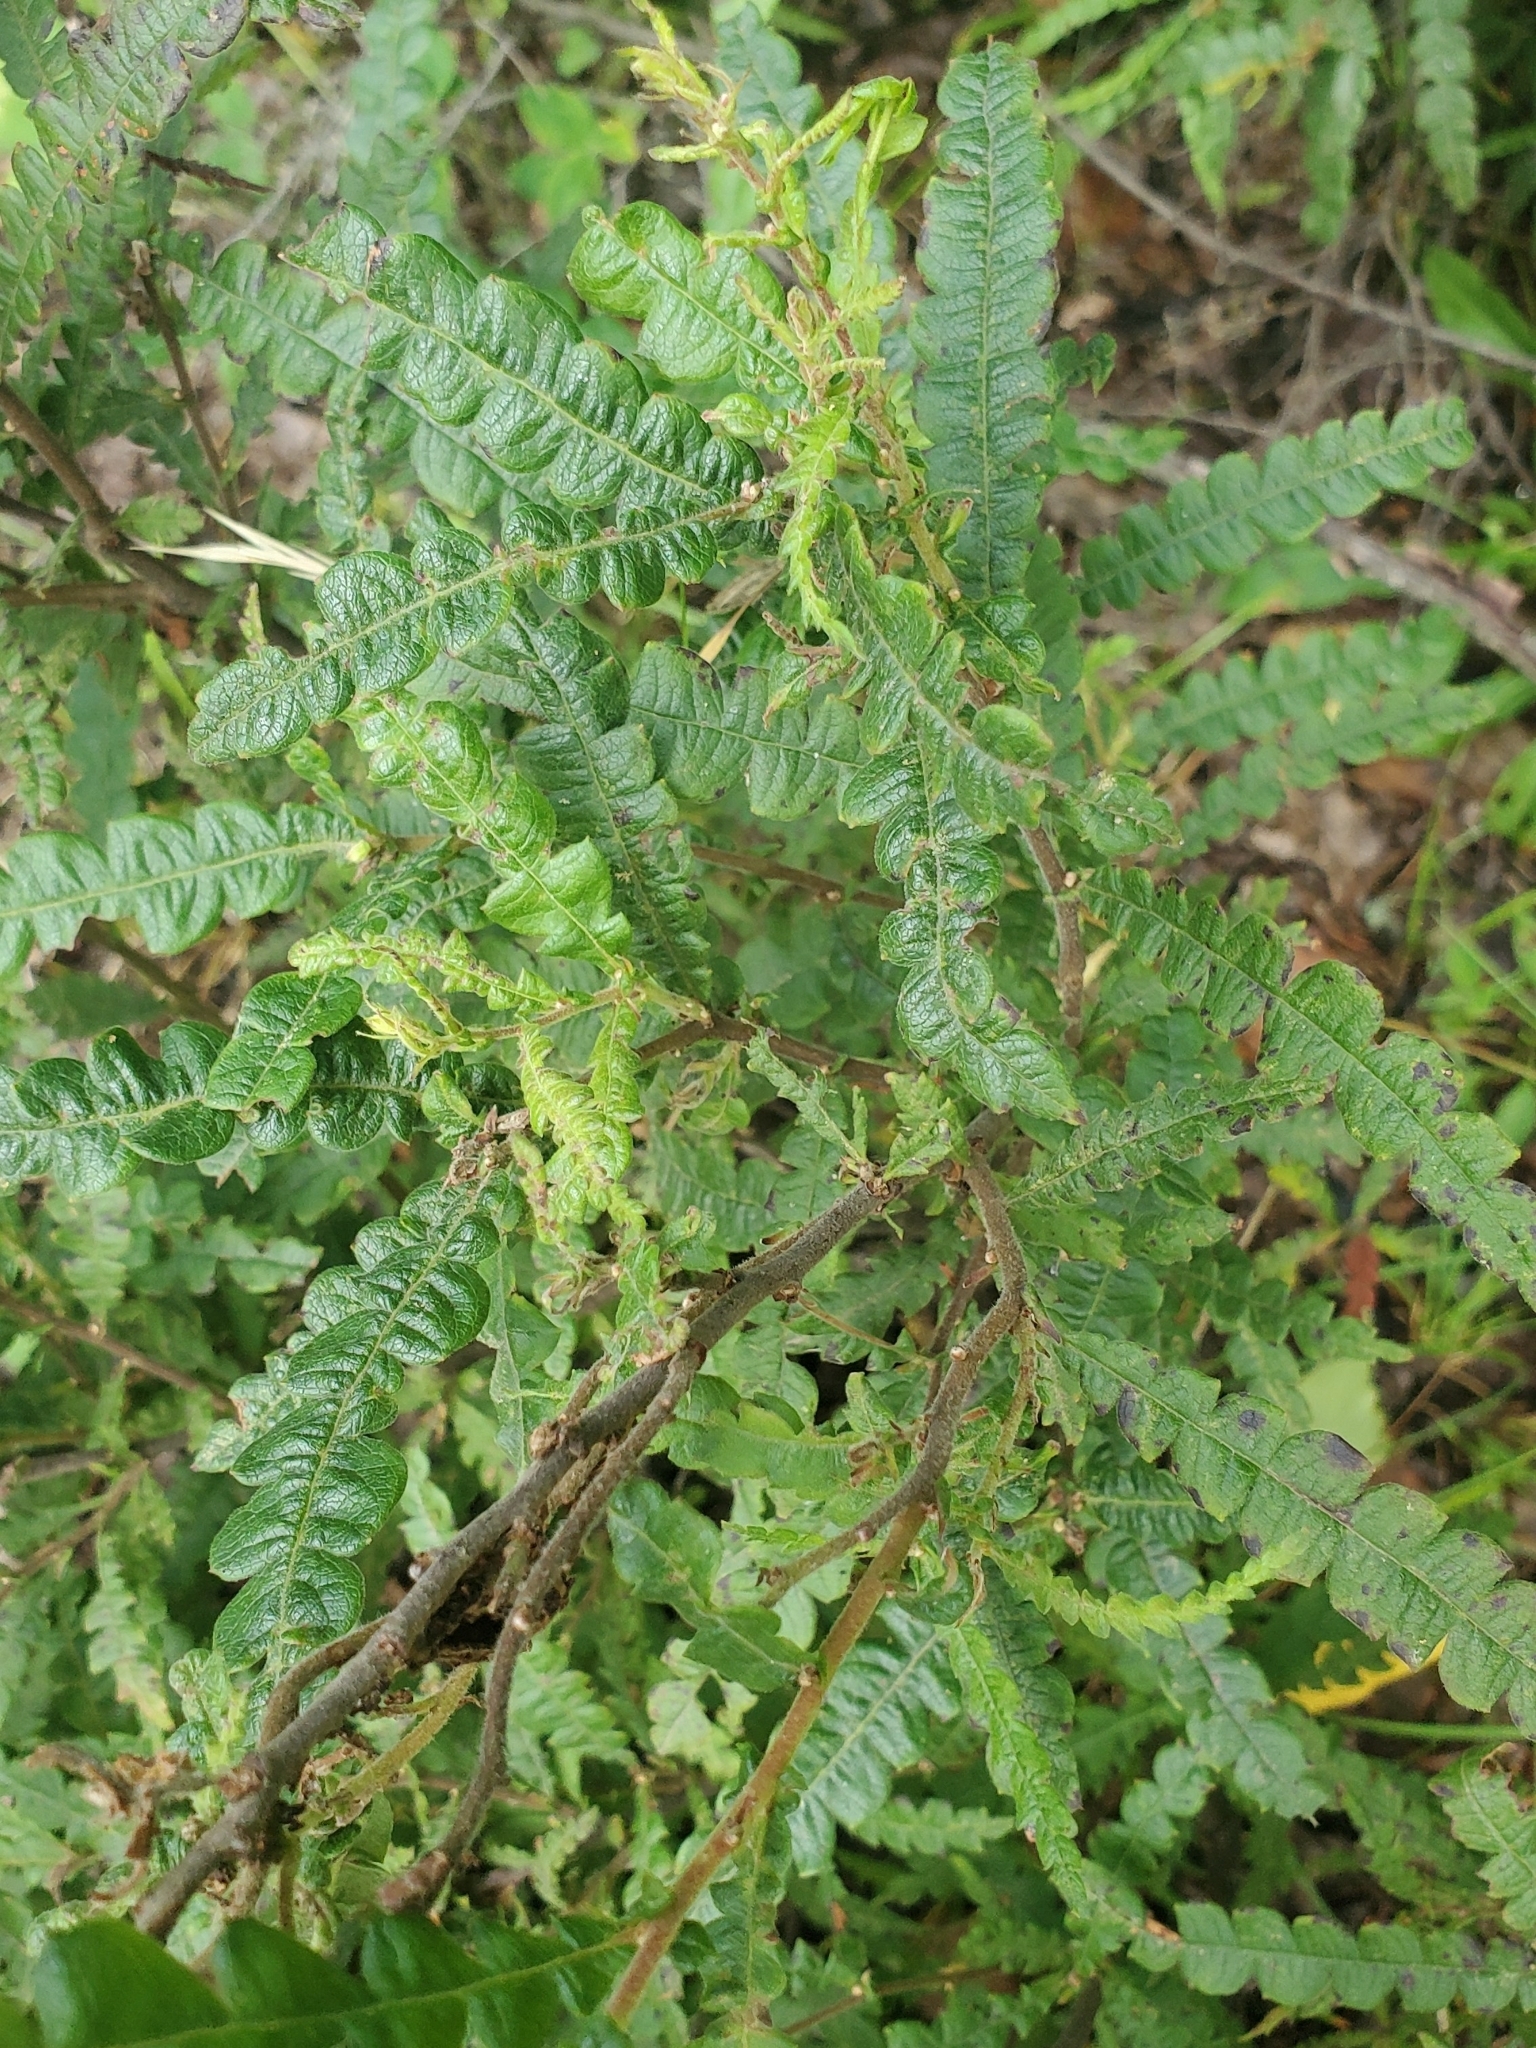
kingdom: Plantae
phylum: Tracheophyta
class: Magnoliopsida
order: Fagales
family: Myricaceae
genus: Comptonia
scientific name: Comptonia peregrina
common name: Sweet-fern
